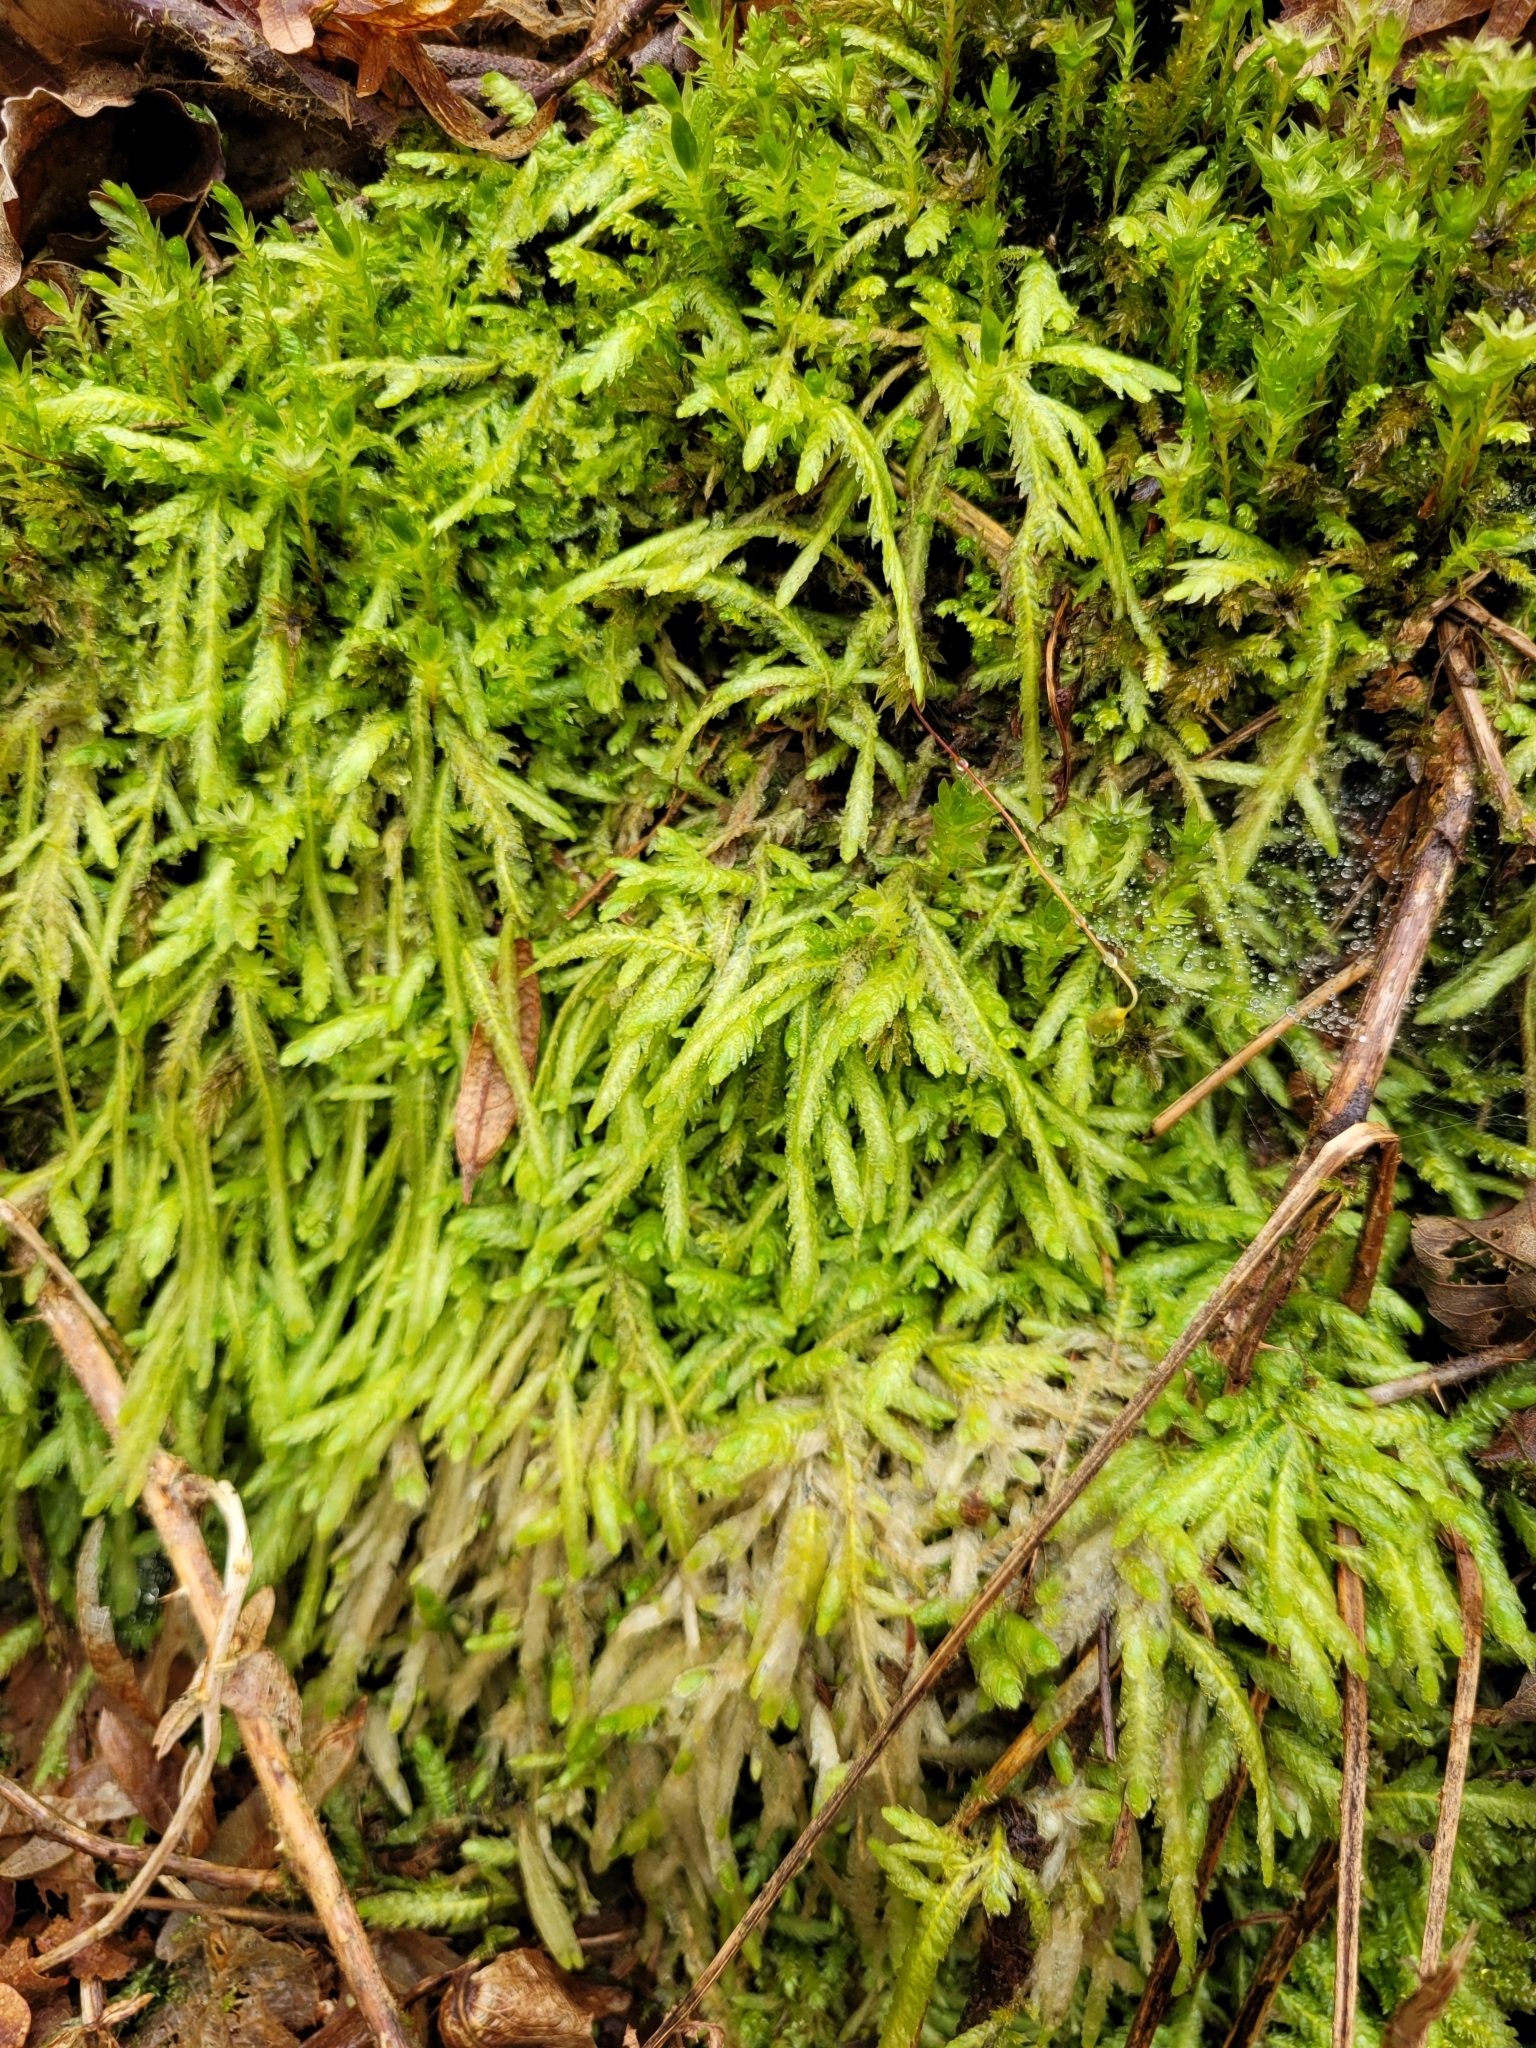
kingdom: Plantae
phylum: Bryophyta
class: Bryopsida
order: Hypnales
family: Plagiotheciaceae
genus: Plagiothecium
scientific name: Plagiothecium undulatum
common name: Waved silk-moss
